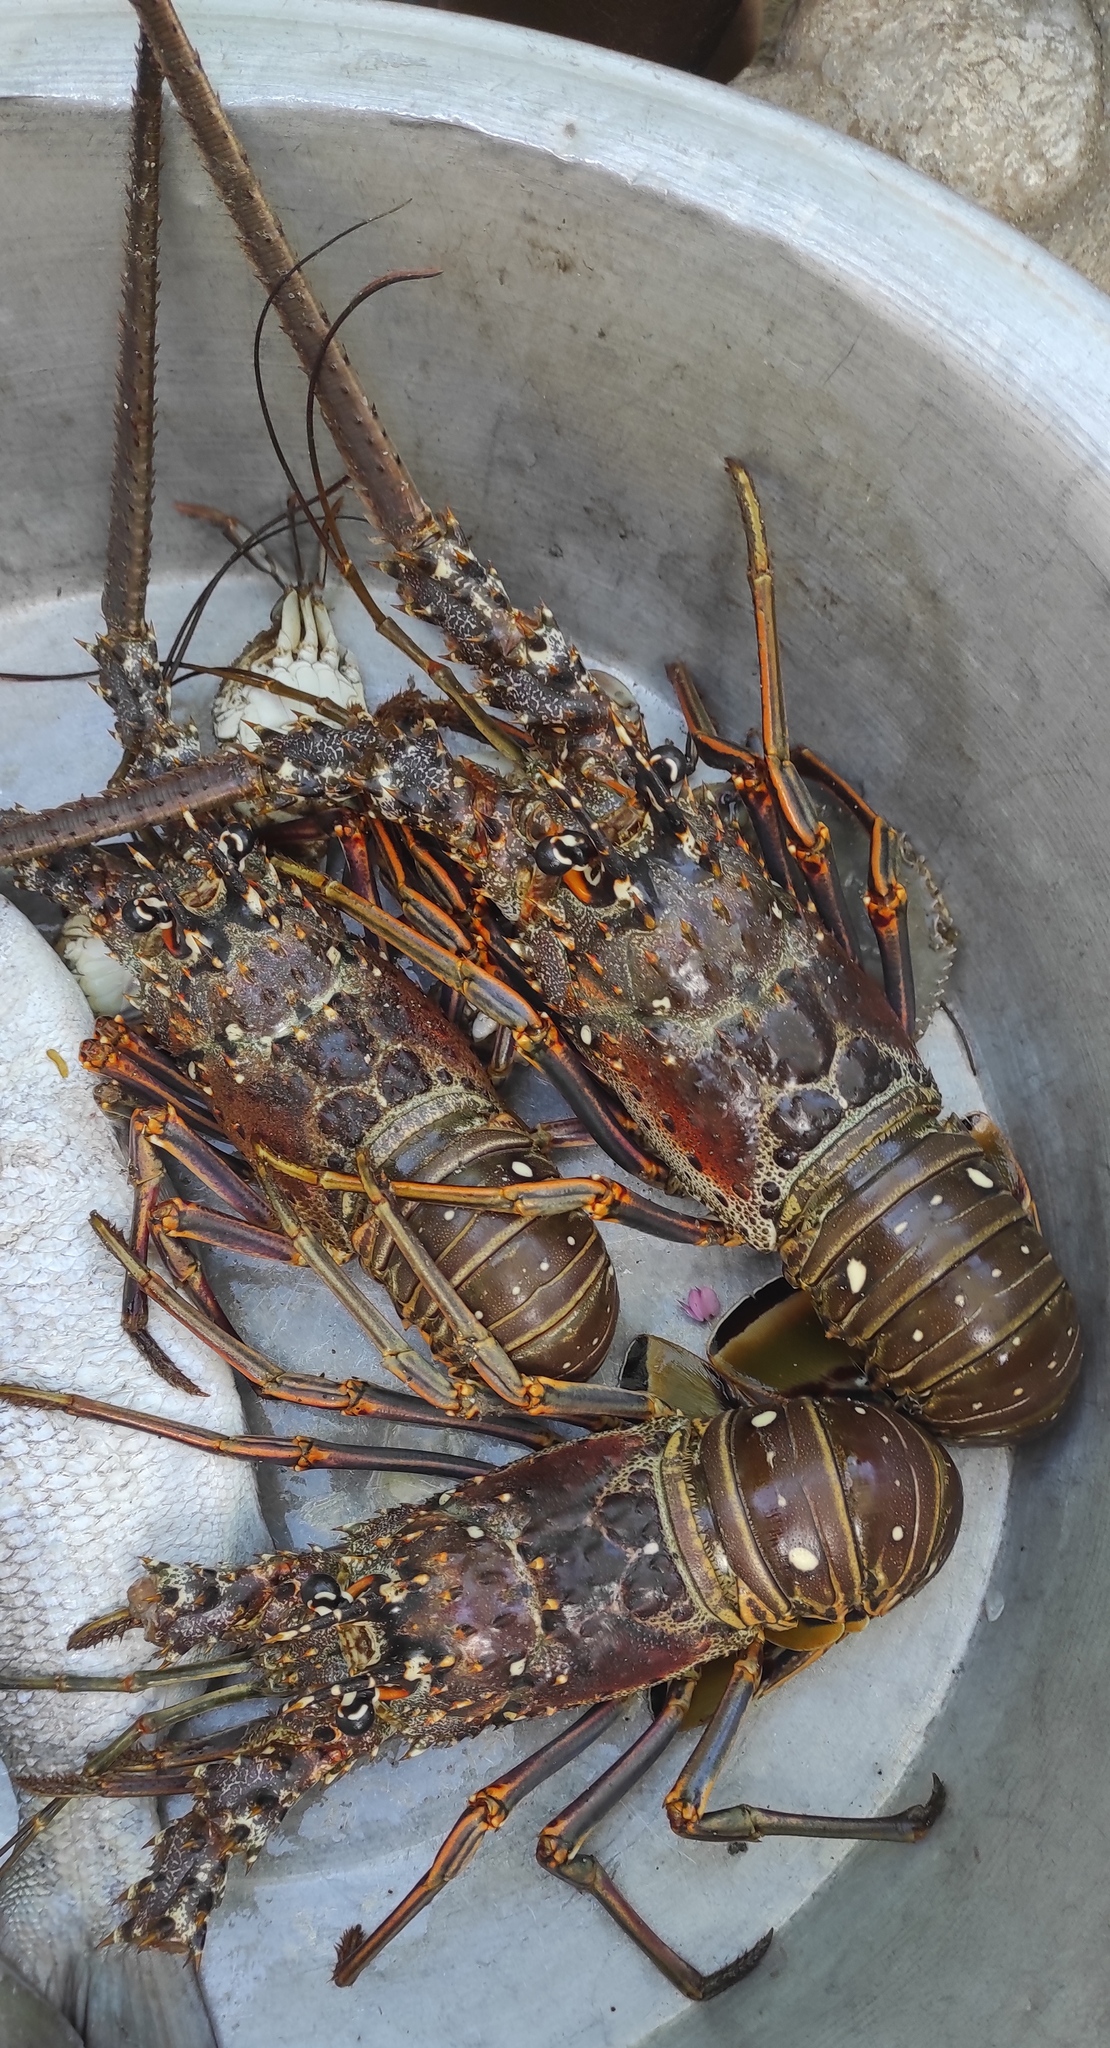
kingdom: Animalia
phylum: Arthropoda
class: Malacostraca
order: Decapoda
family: Palinuridae
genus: Panulirus
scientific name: Panulirus argus
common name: Caribbean spiny lobster
